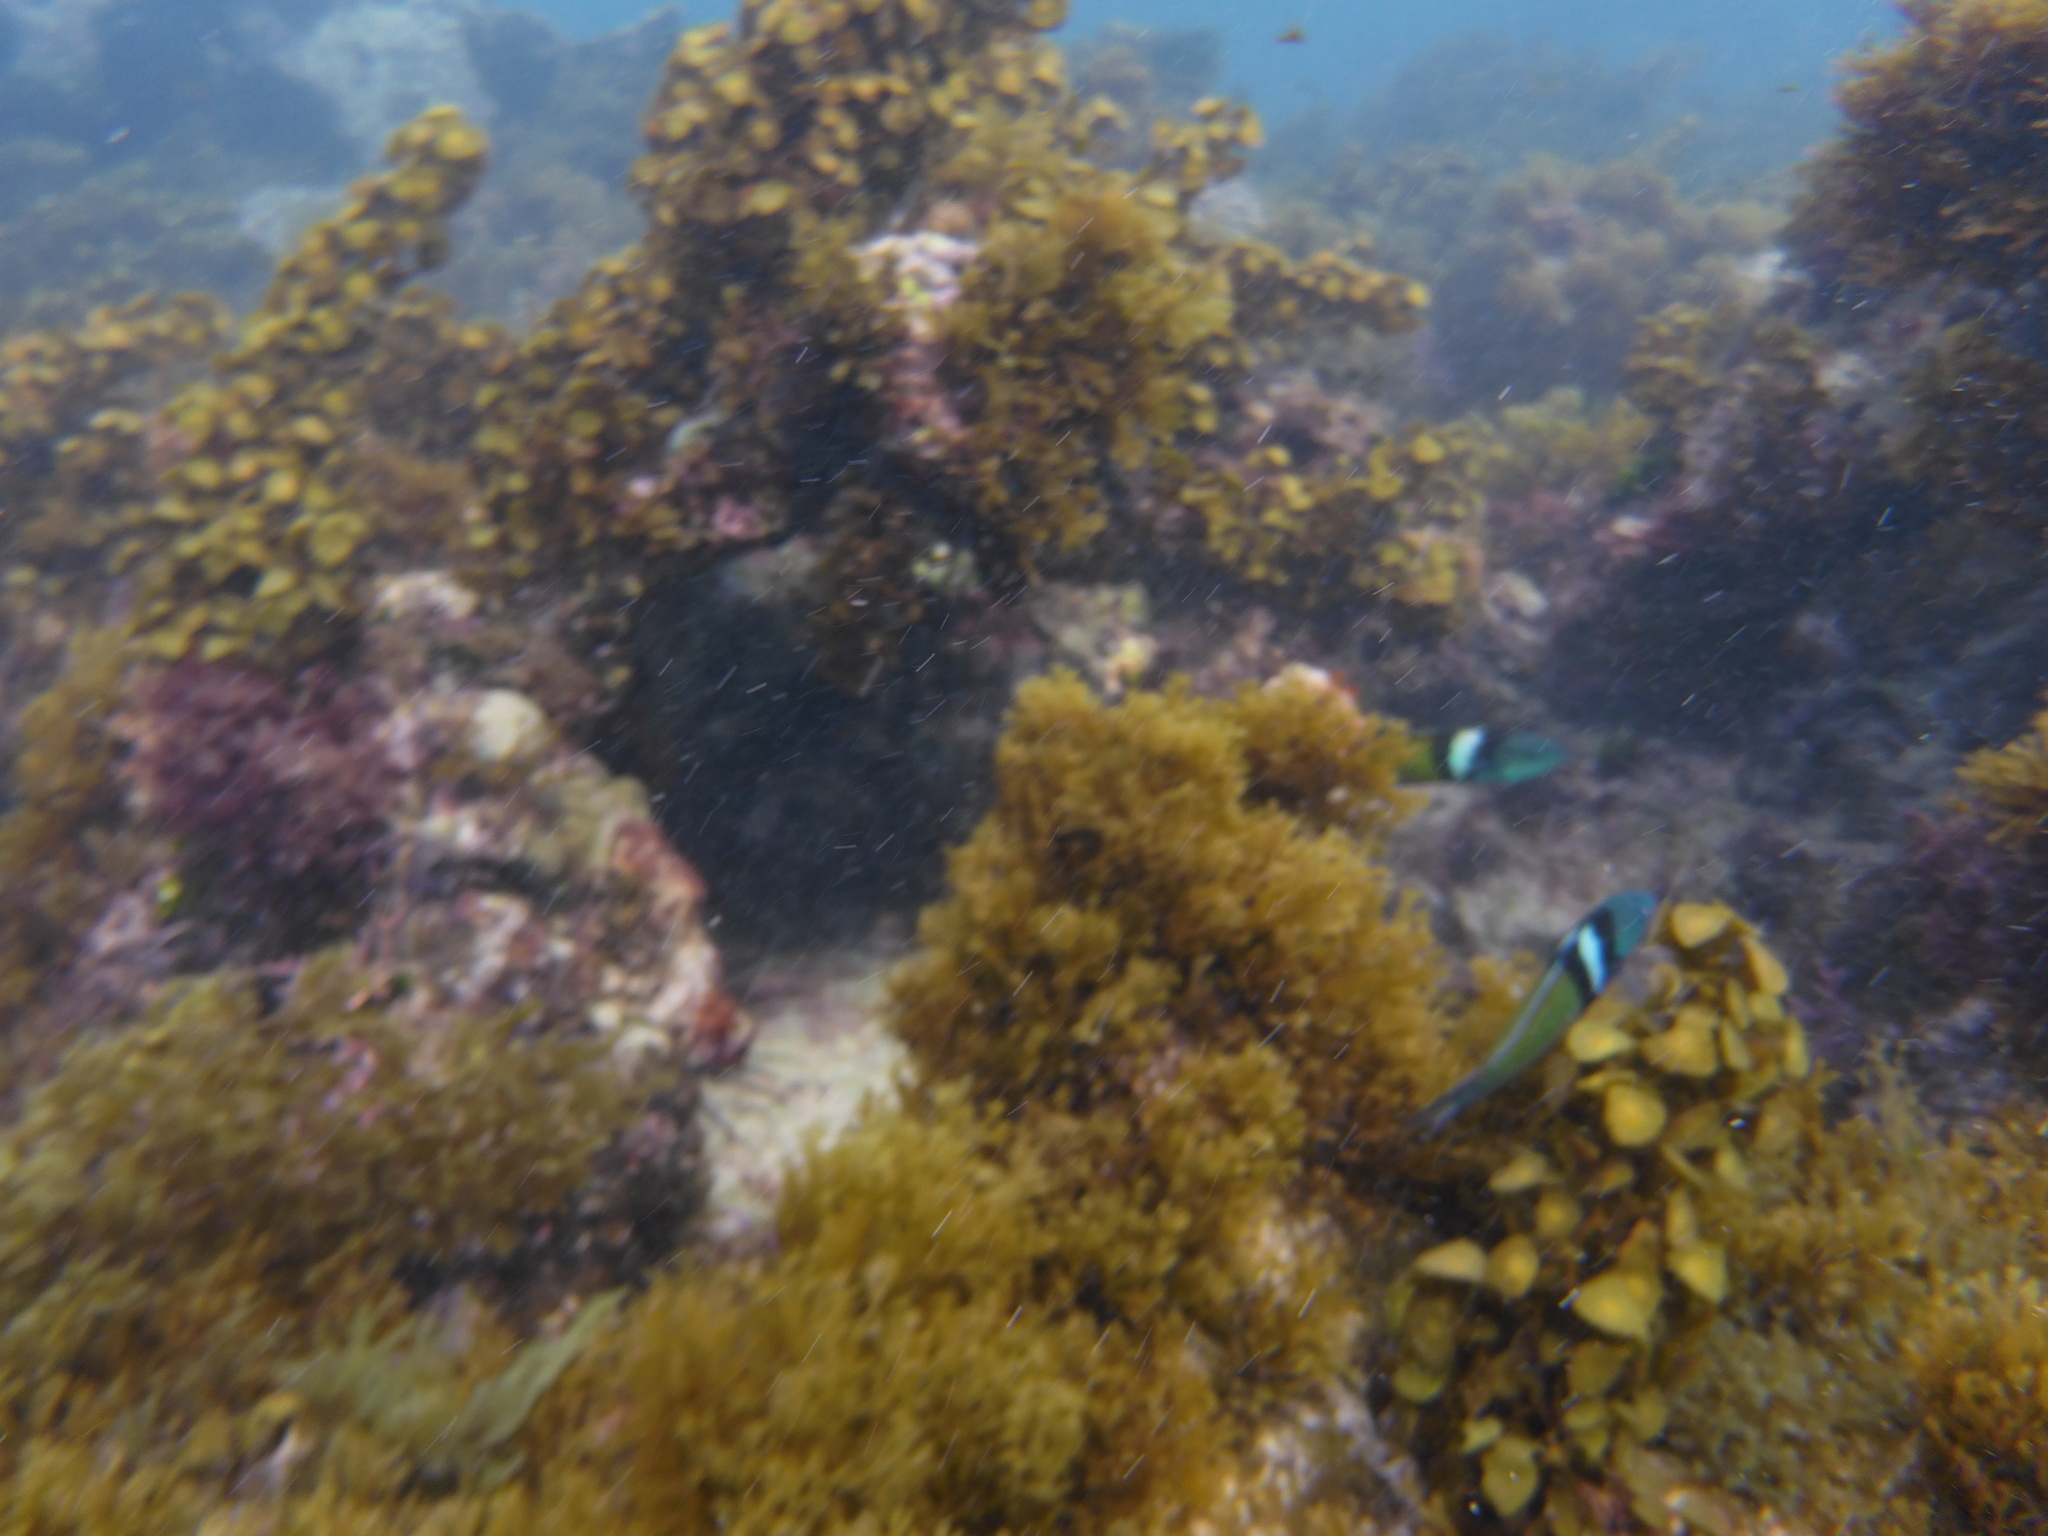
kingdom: Animalia
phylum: Chordata
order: Perciformes
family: Labridae
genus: Thalassoma
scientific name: Thalassoma bifasciatum
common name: Bluehead wrasse
